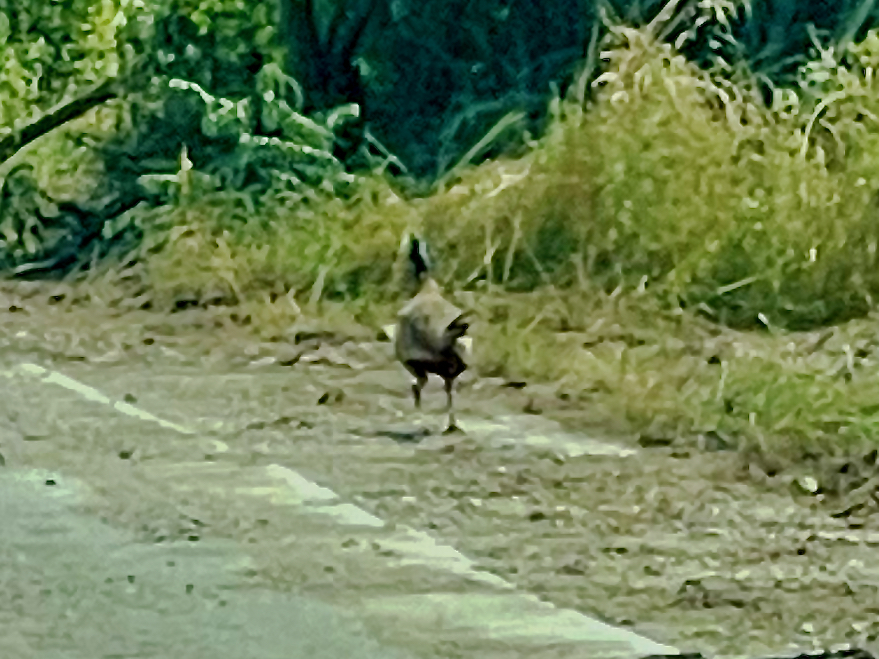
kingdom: Animalia
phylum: Chordata
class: Aves
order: Galliformes
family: Phasianidae
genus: Phasianus
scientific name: Phasianus colchicus
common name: Common pheasant
